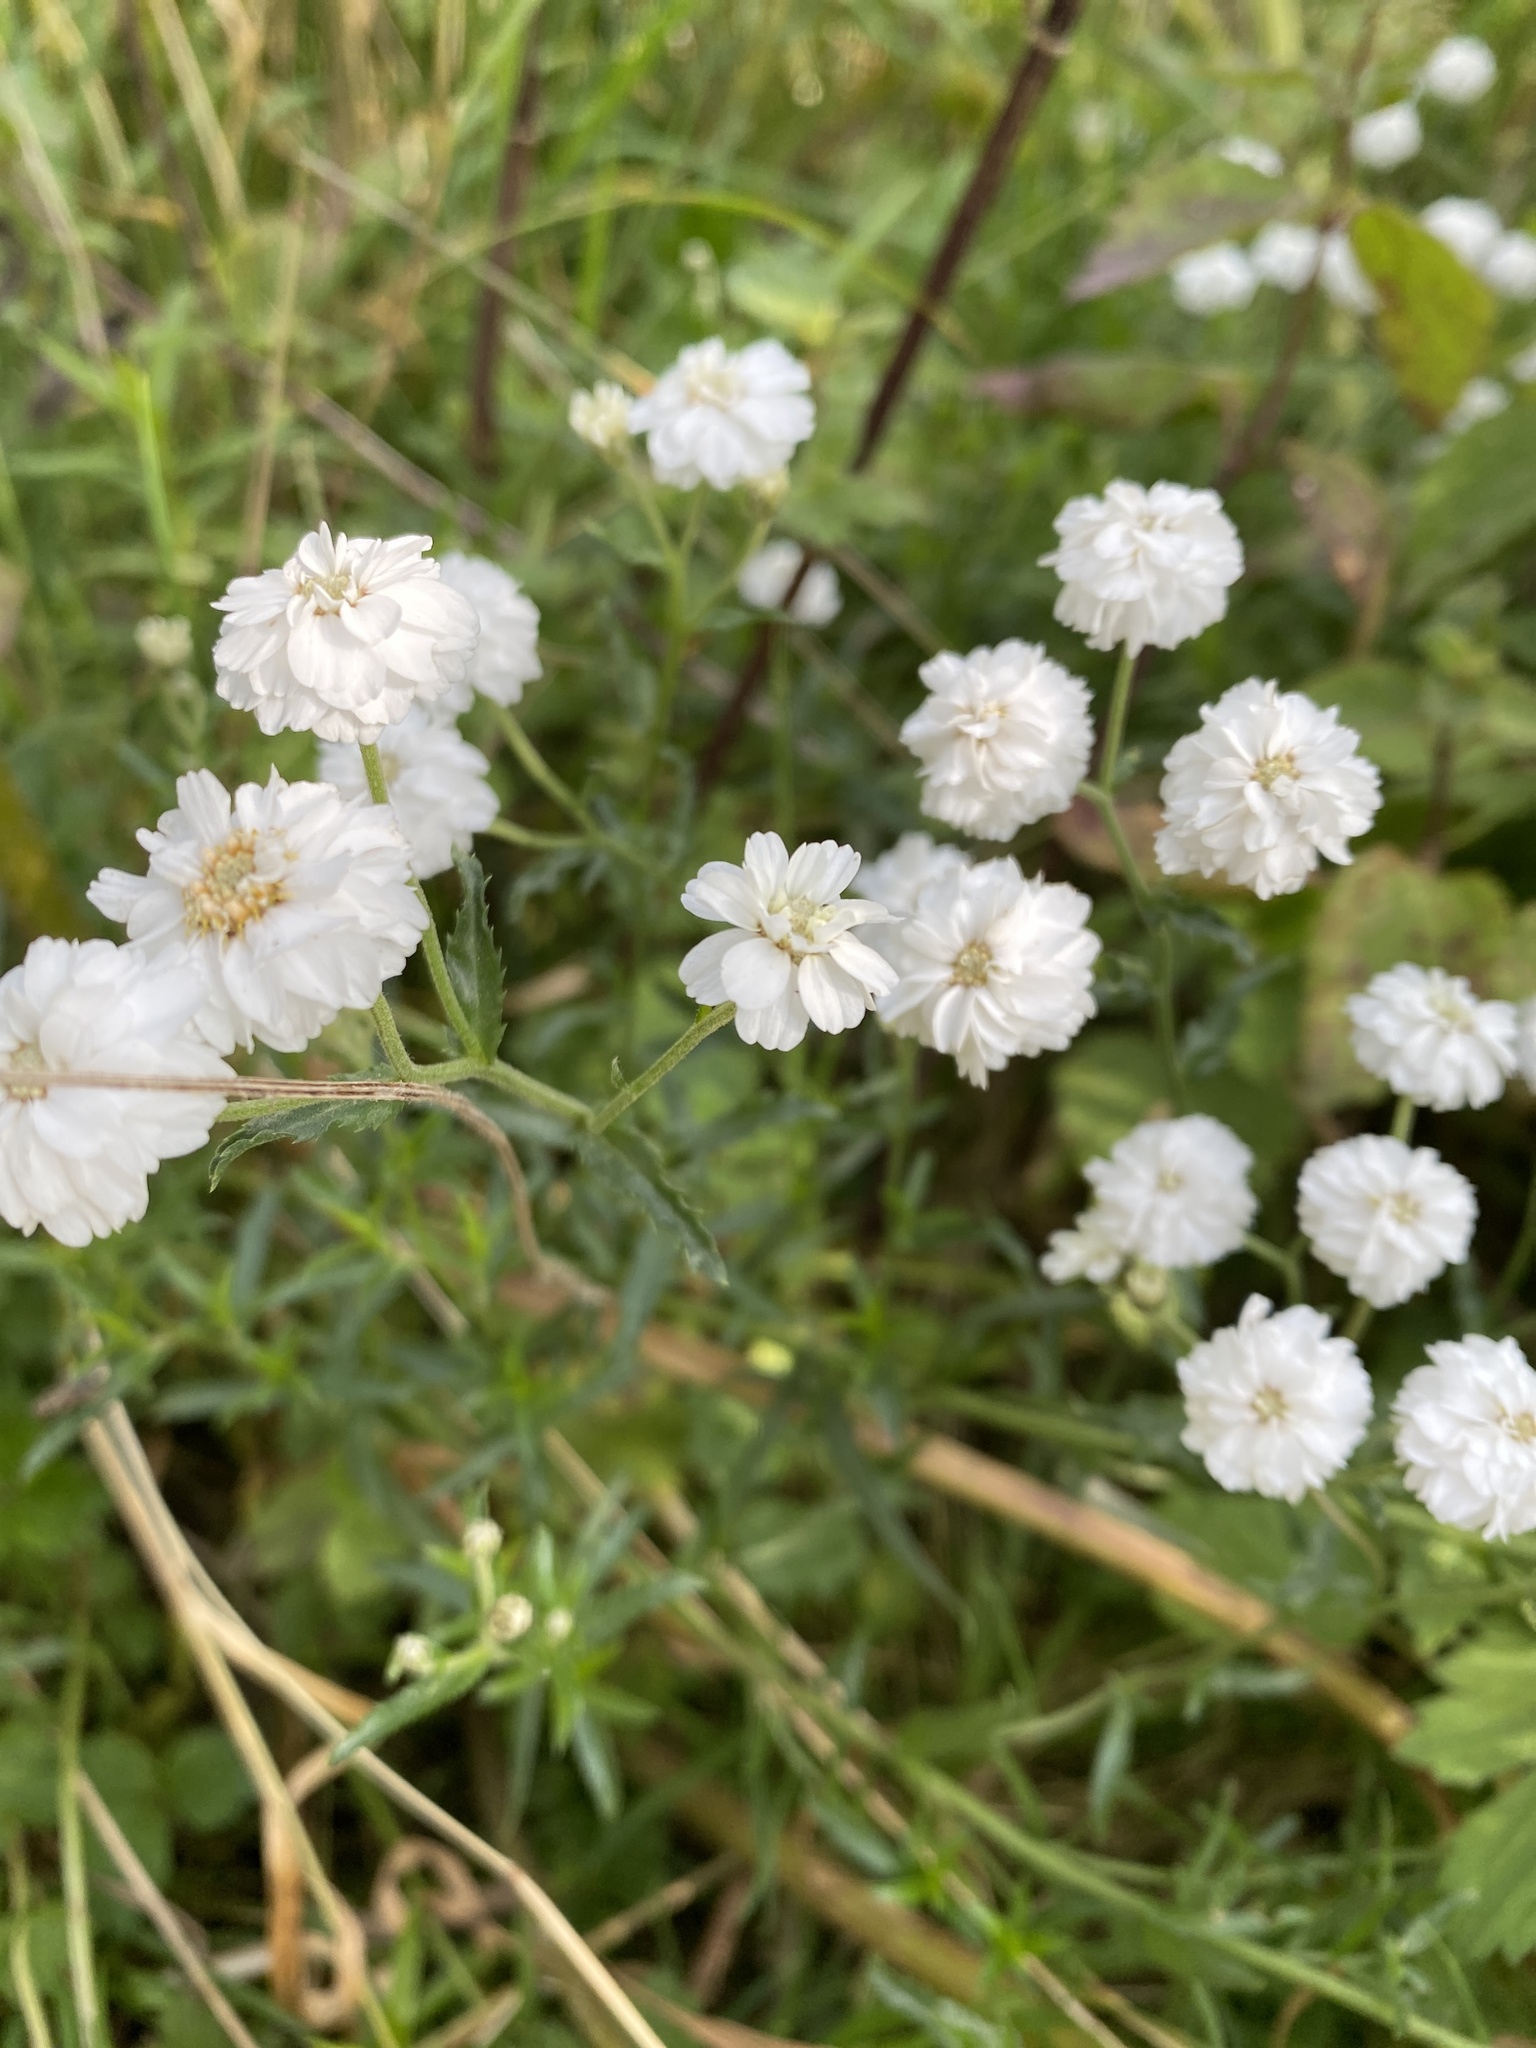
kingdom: Plantae
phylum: Tracheophyta
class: Magnoliopsida
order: Asterales
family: Asteraceae
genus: Achillea
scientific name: Achillea ptarmica
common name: Sneezeweed
